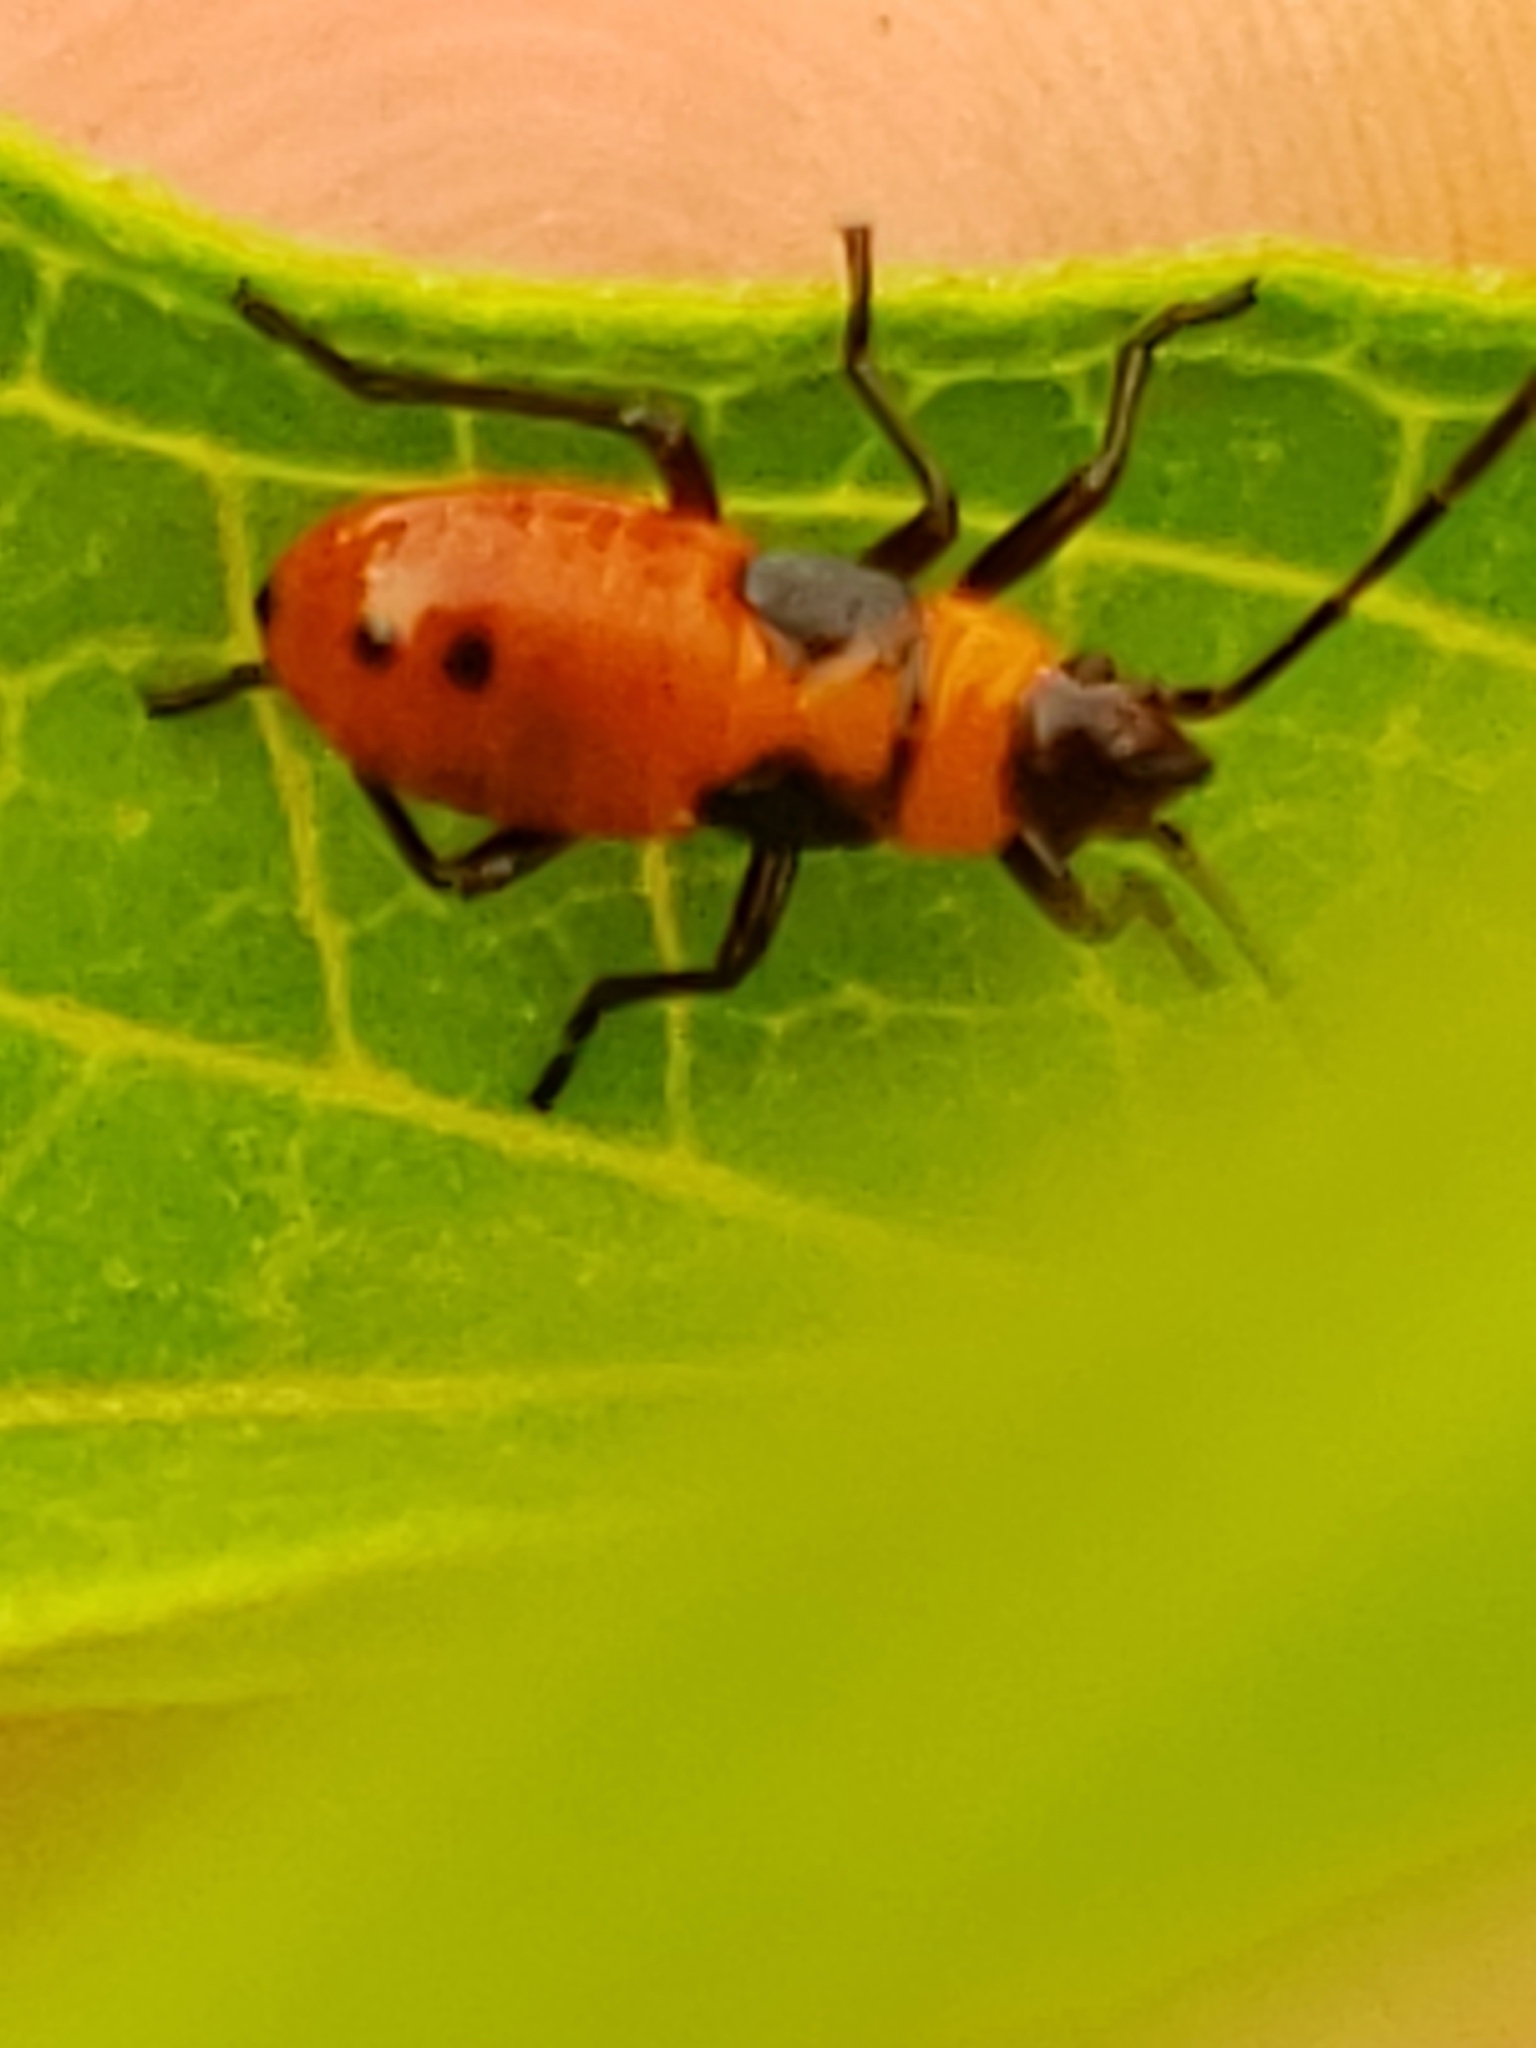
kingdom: Animalia
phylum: Arthropoda
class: Insecta
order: Hemiptera
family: Lygaeidae
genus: Oncopeltus
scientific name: Oncopeltus fasciatus
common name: Large milkweed bug
